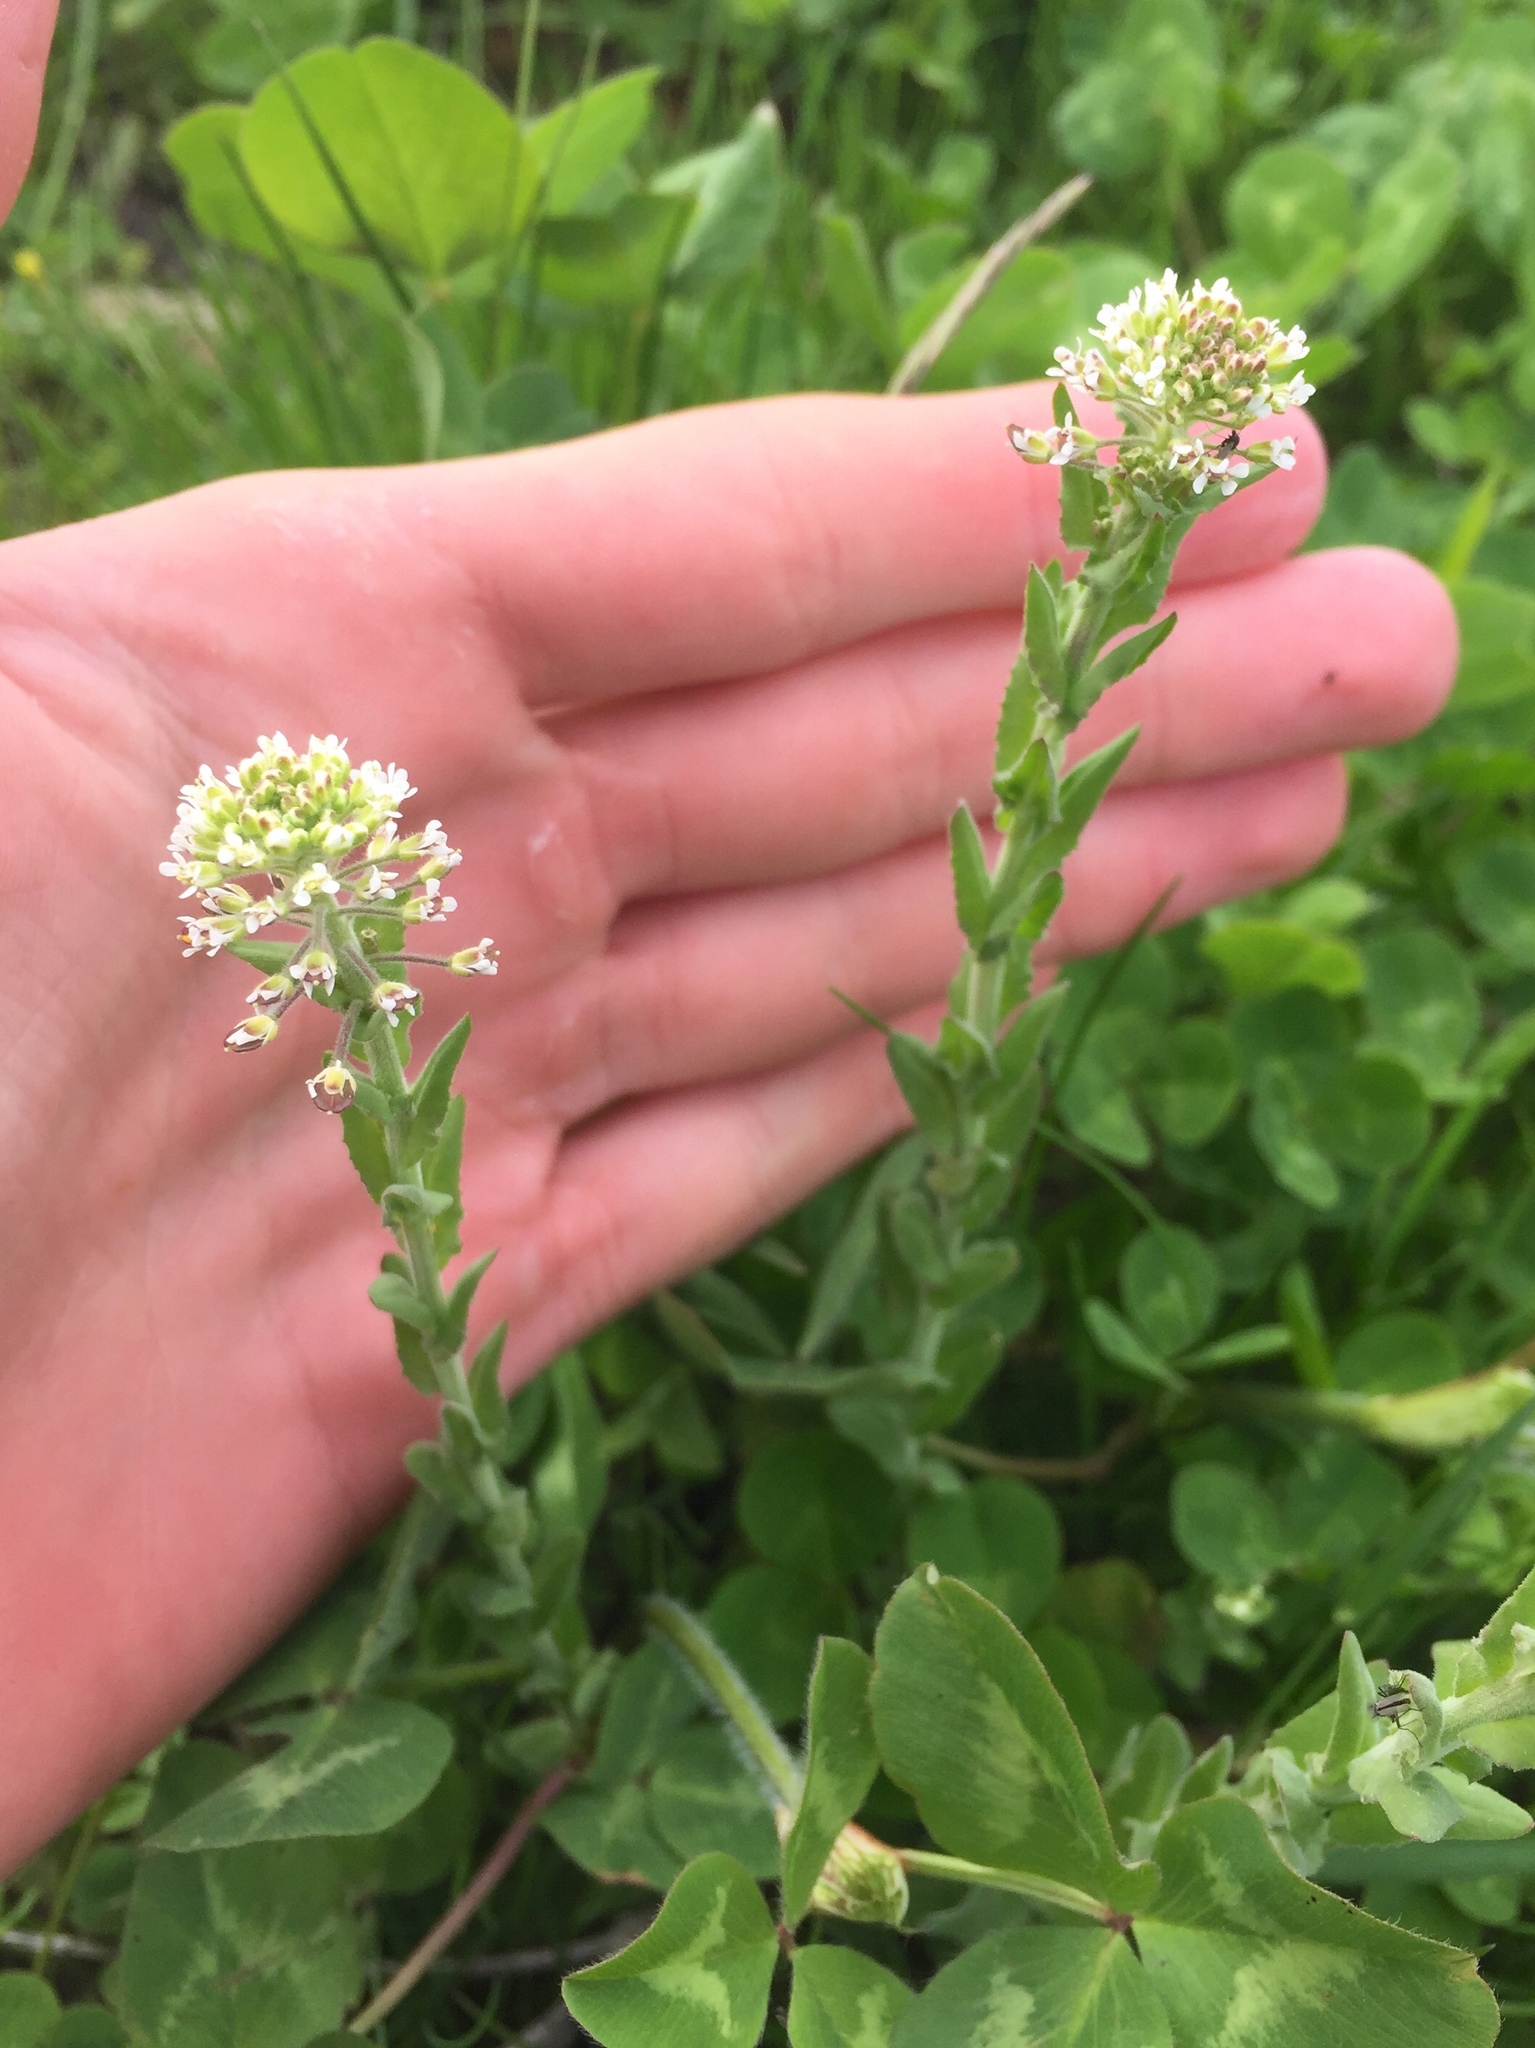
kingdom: Plantae
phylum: Tracheophyta
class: Magnoliopsida
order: Brassicales
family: Brassicaceae
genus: Lepidium
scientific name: Lepidium campestre
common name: Field pepperwort
